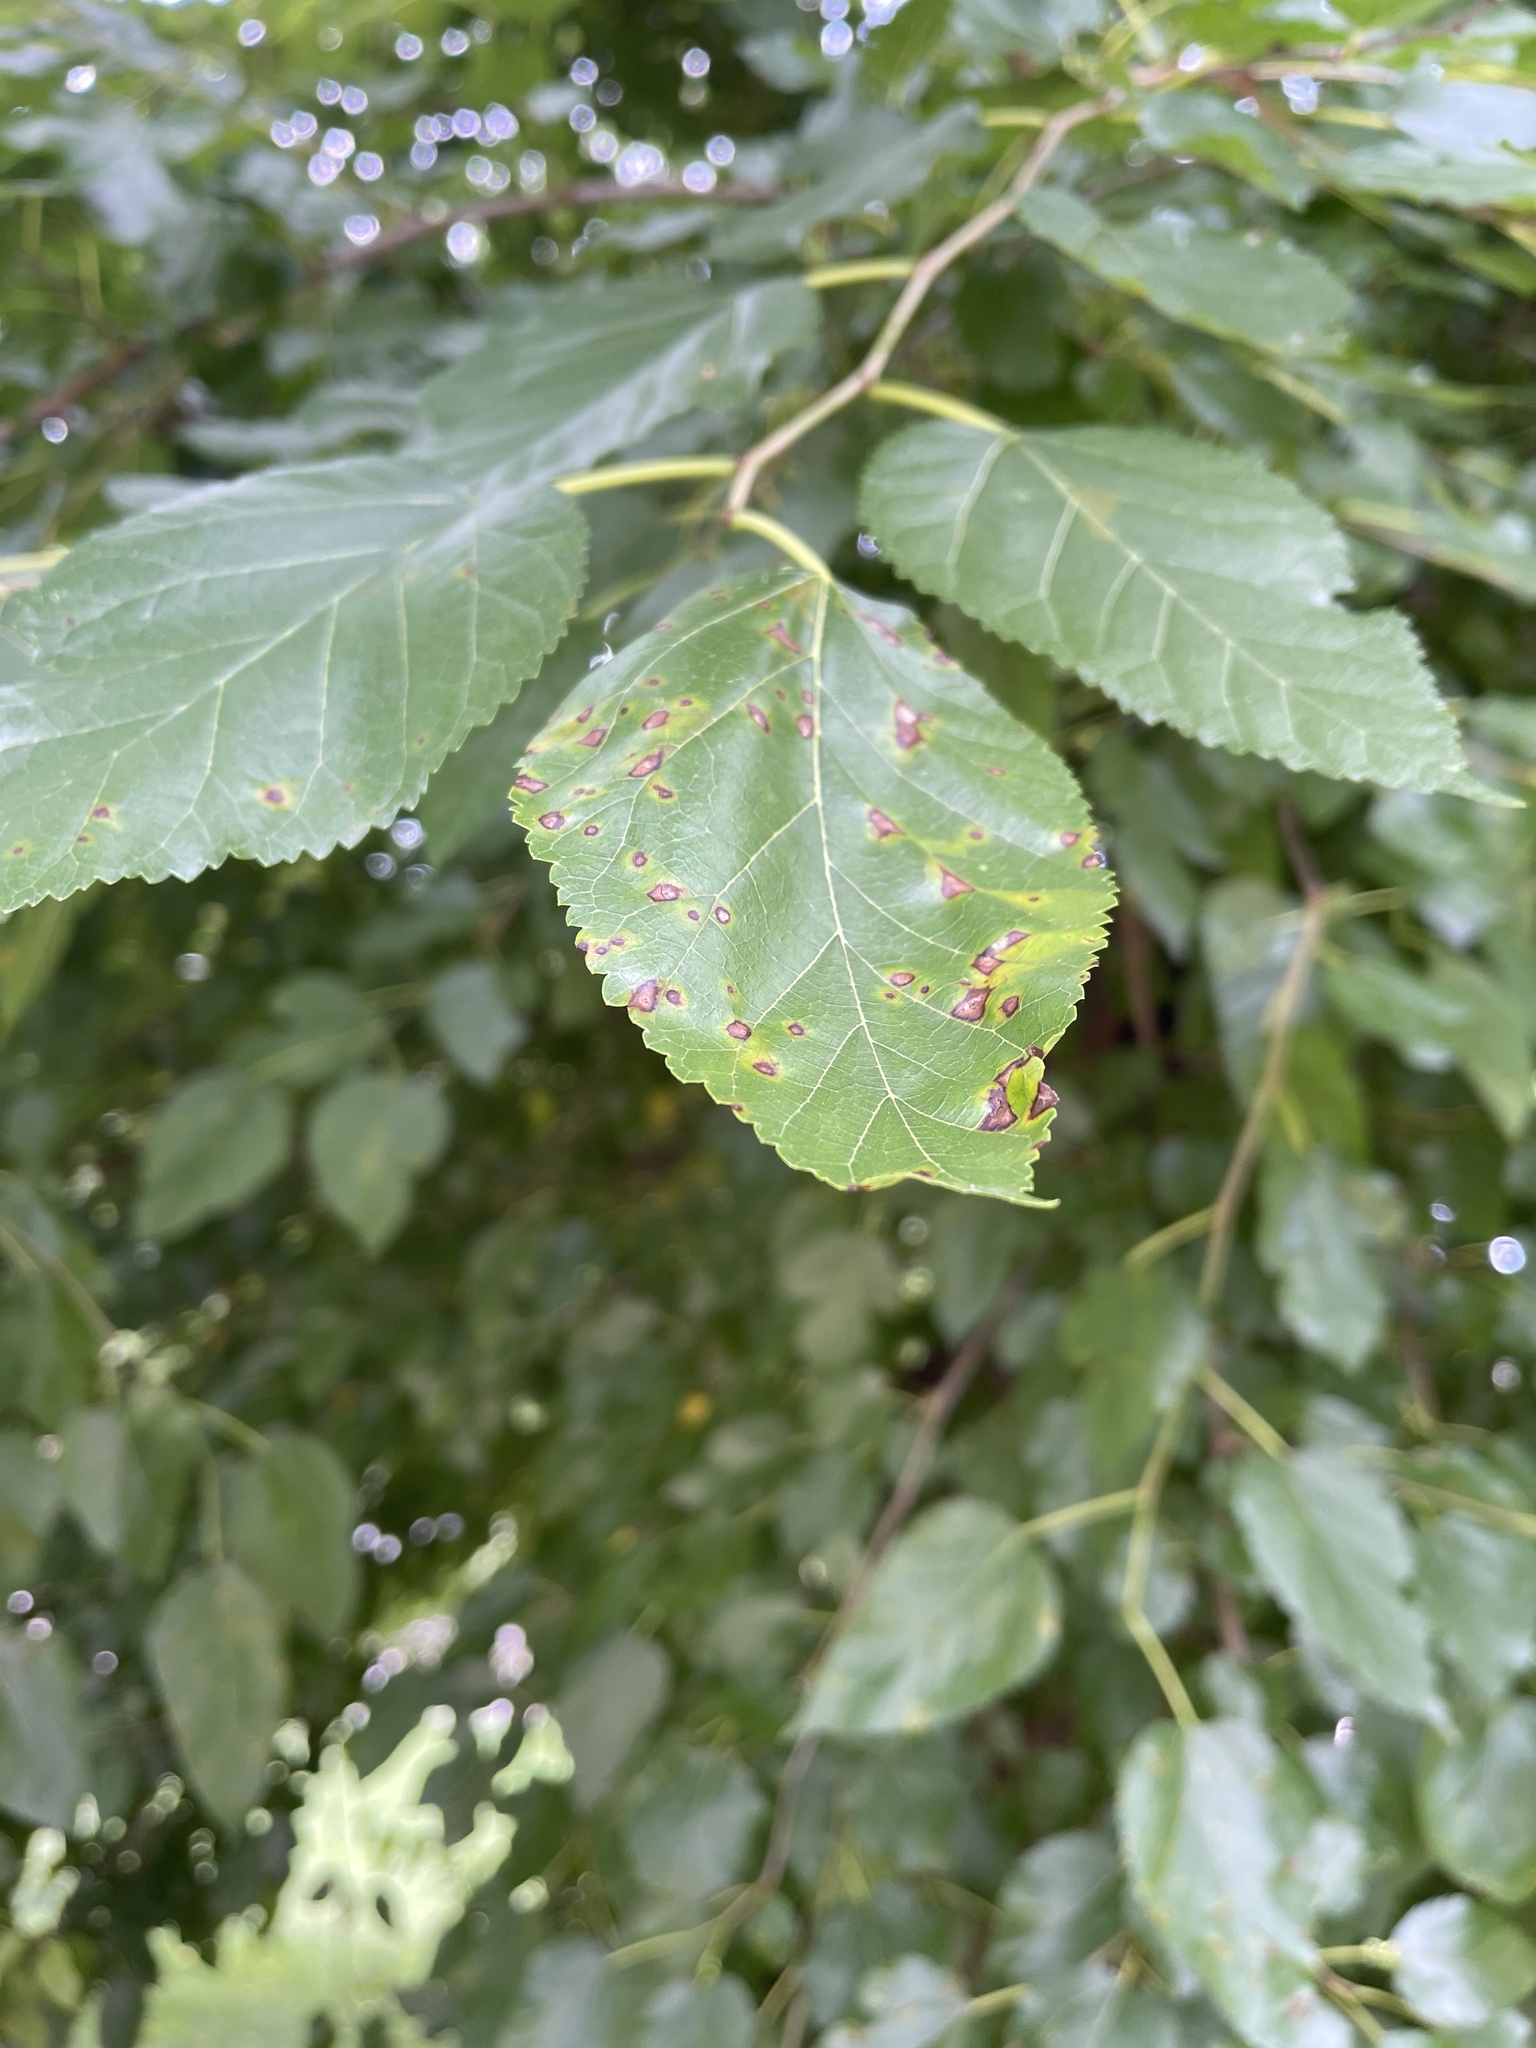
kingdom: Fungi
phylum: Ascomycota
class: Dothideomycetes
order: Mycosphaerellales
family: Mycosphaerellaceae
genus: Cercospora
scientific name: Cercospora moricola
